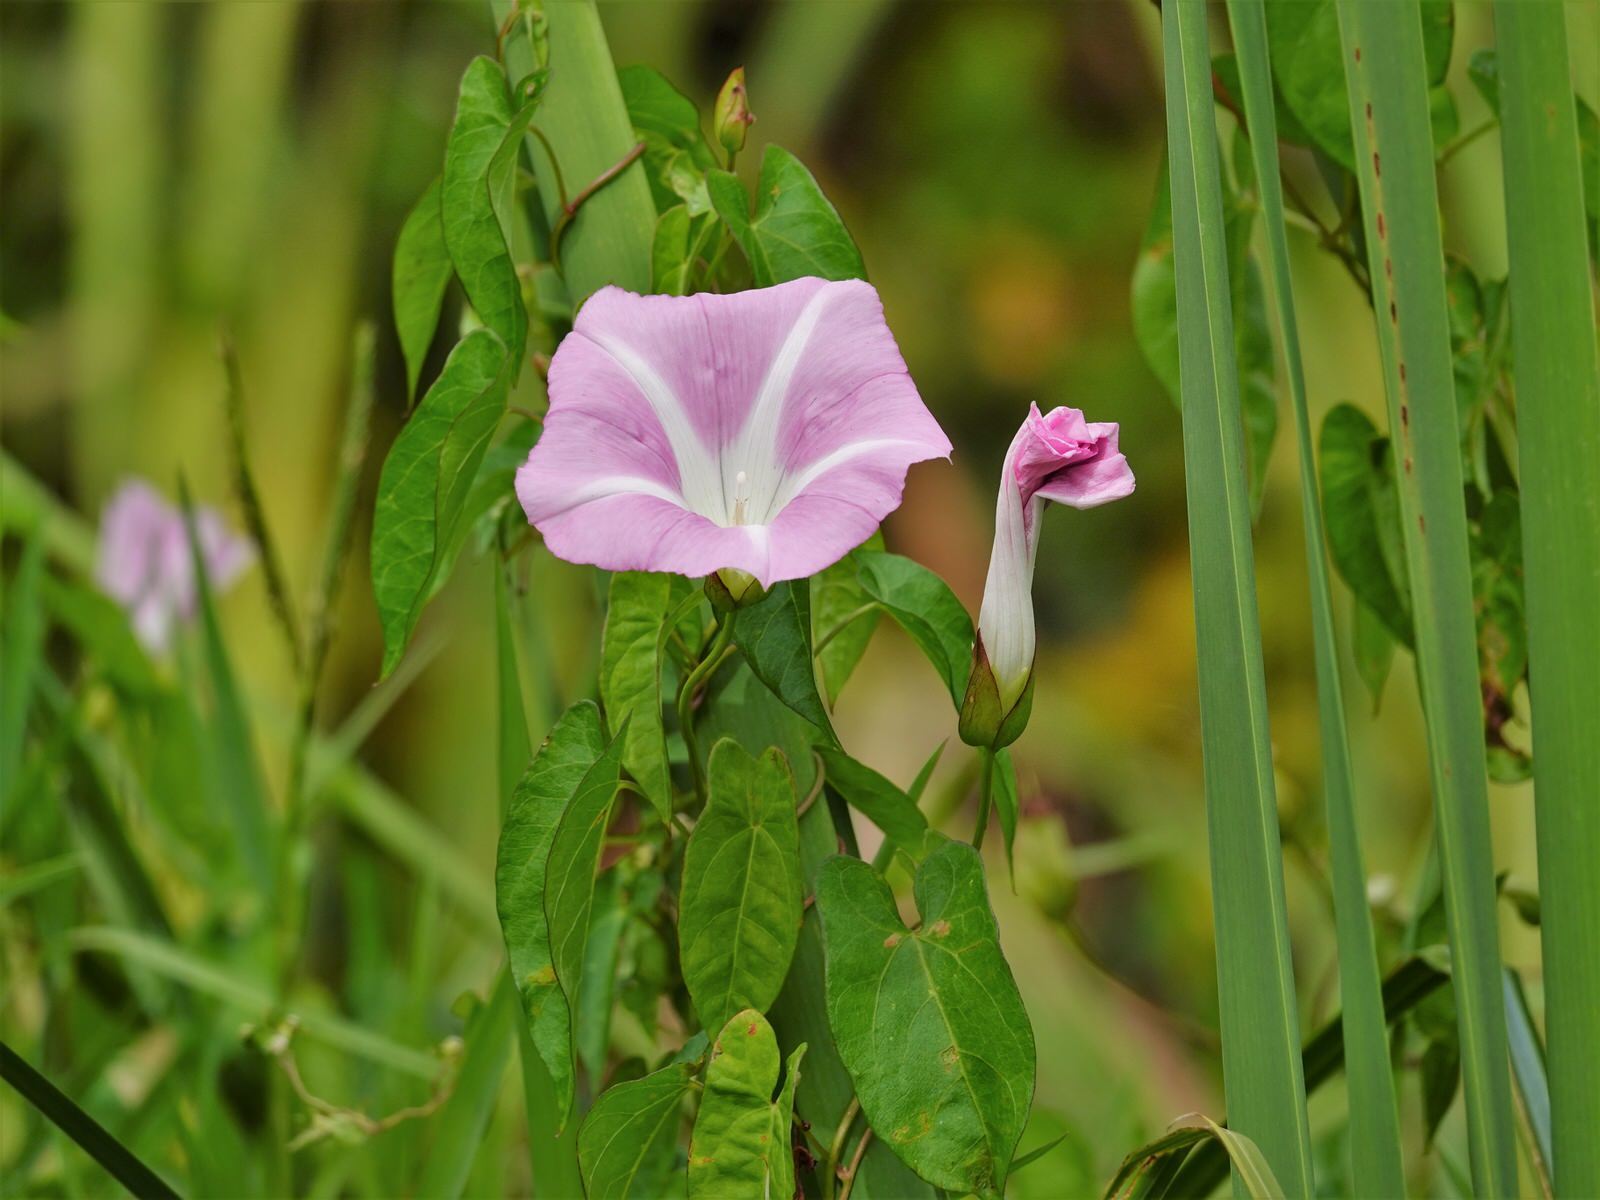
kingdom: Plantae
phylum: Tracheophyta
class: Magnoliopsida
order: Solanales
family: Convolvulaceae
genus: Calystegia
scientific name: Calystegia sepium
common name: Hedge bindweed
